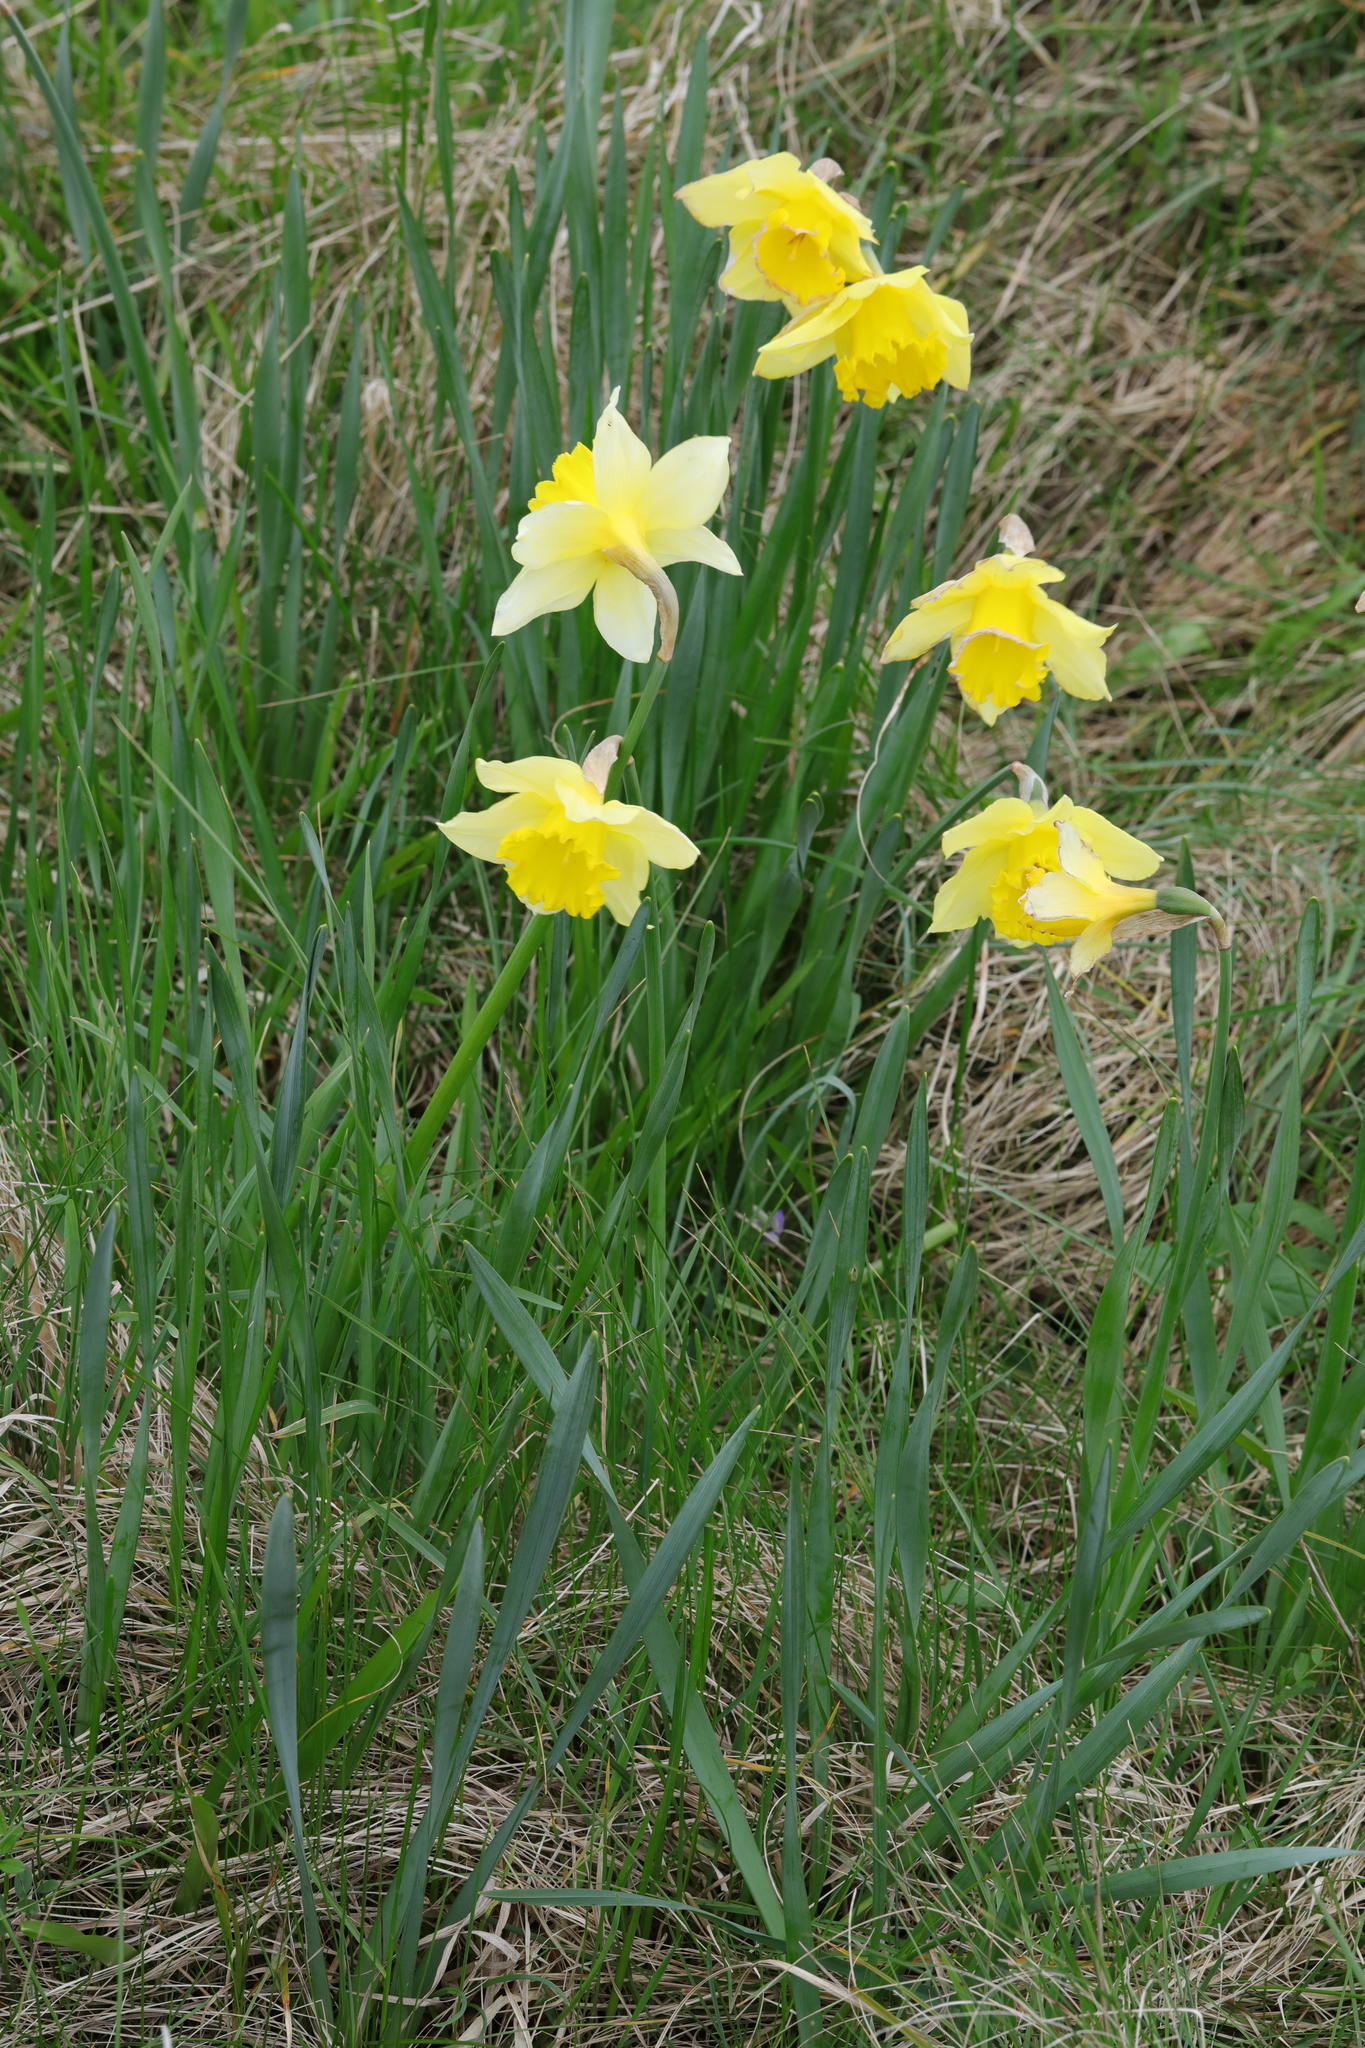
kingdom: Plantae
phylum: Tracheophyta
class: Liliopsida
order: Asparagales
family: Amaryllidaceae
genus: Narcissus
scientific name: Narcissus
